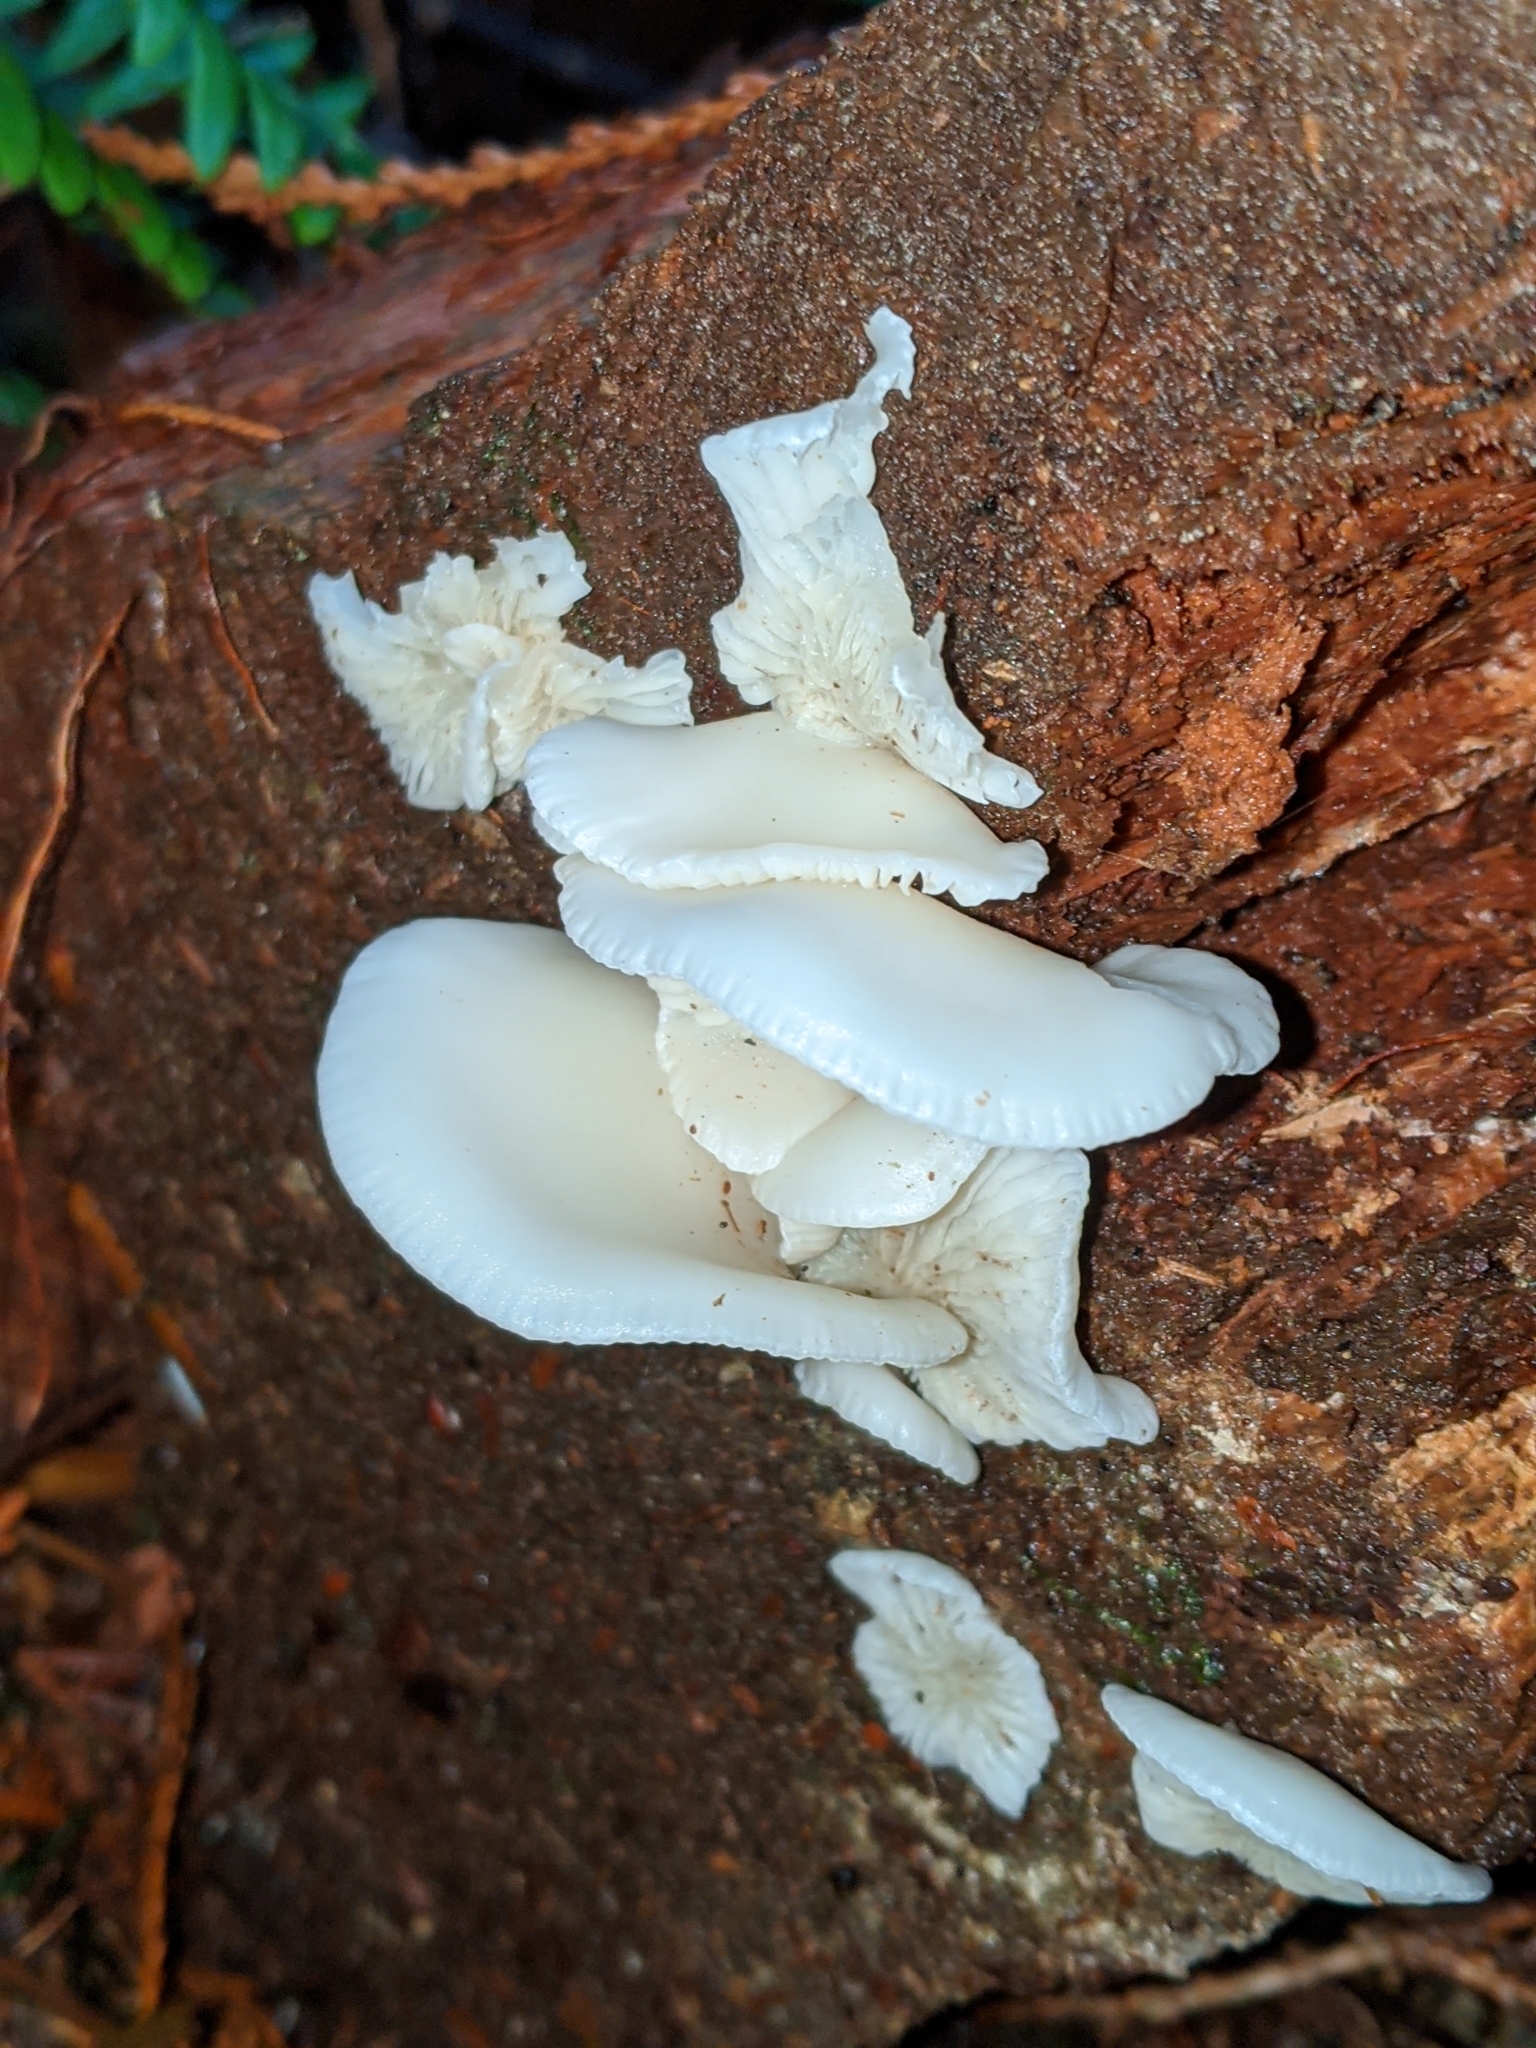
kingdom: Fungi
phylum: Basidiomycota
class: Agaricomycetes
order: Agaricales
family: Marasmiaceae
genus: Pleurocybella
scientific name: Pleurocybella porrigens
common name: Angel's wings
